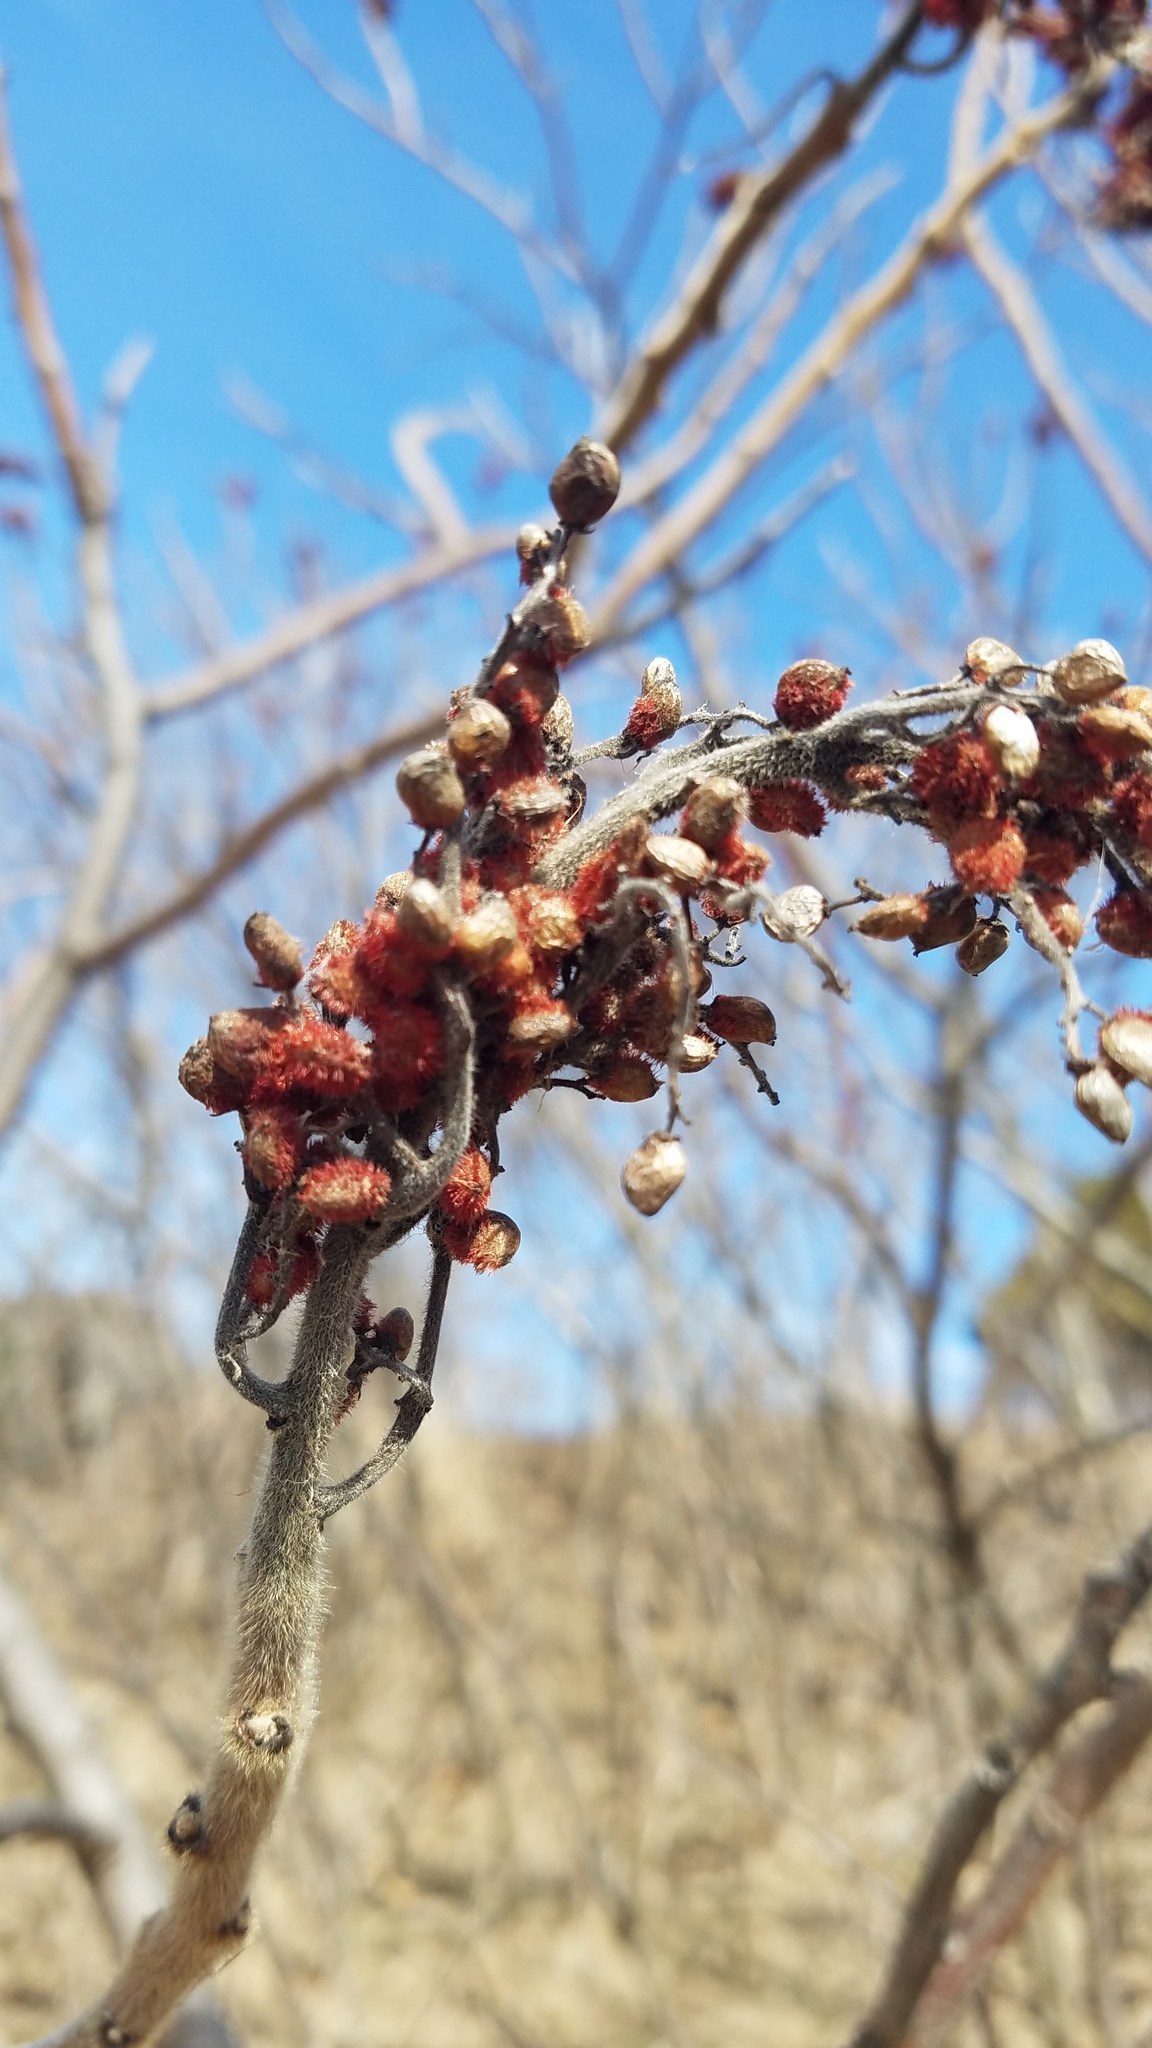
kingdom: Plantae
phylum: Tracheophyta
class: Magnoliopsida
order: Sapindales
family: Anacardiaceae
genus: Rhus
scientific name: Rhus typhina
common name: Staghorn sumac
